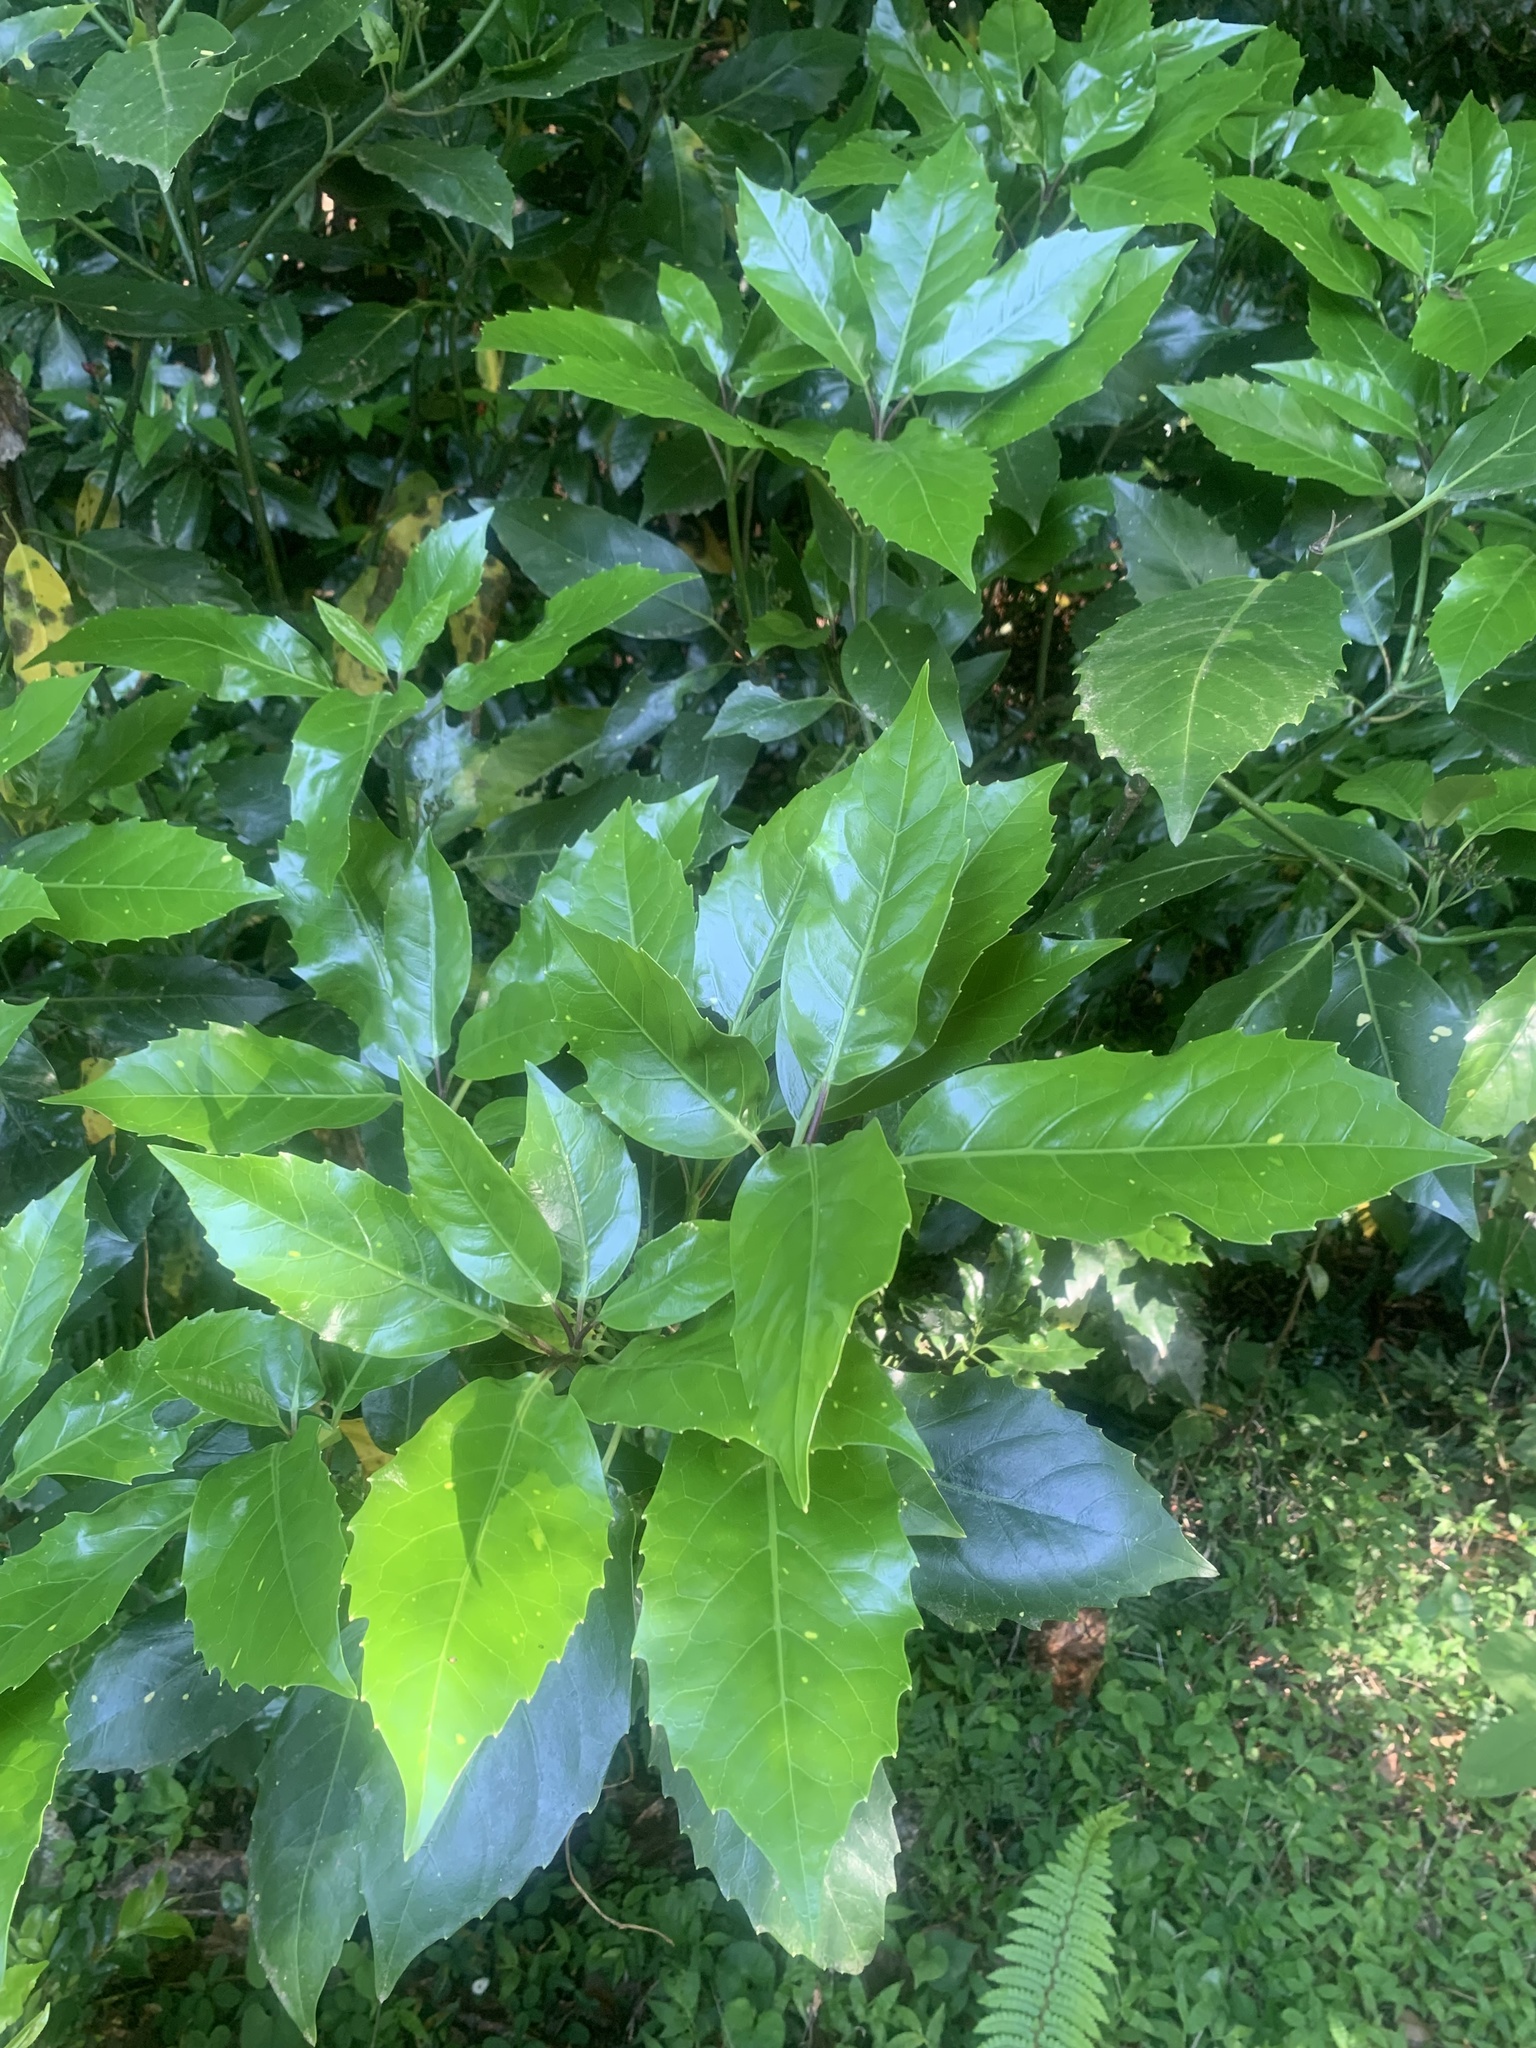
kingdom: Plantae
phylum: Tracheophyta
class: Magnoliopsida
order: Garryales
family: Garryaceae
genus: Aucuba
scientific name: Aucuba japonica
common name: Spotted-laurel
